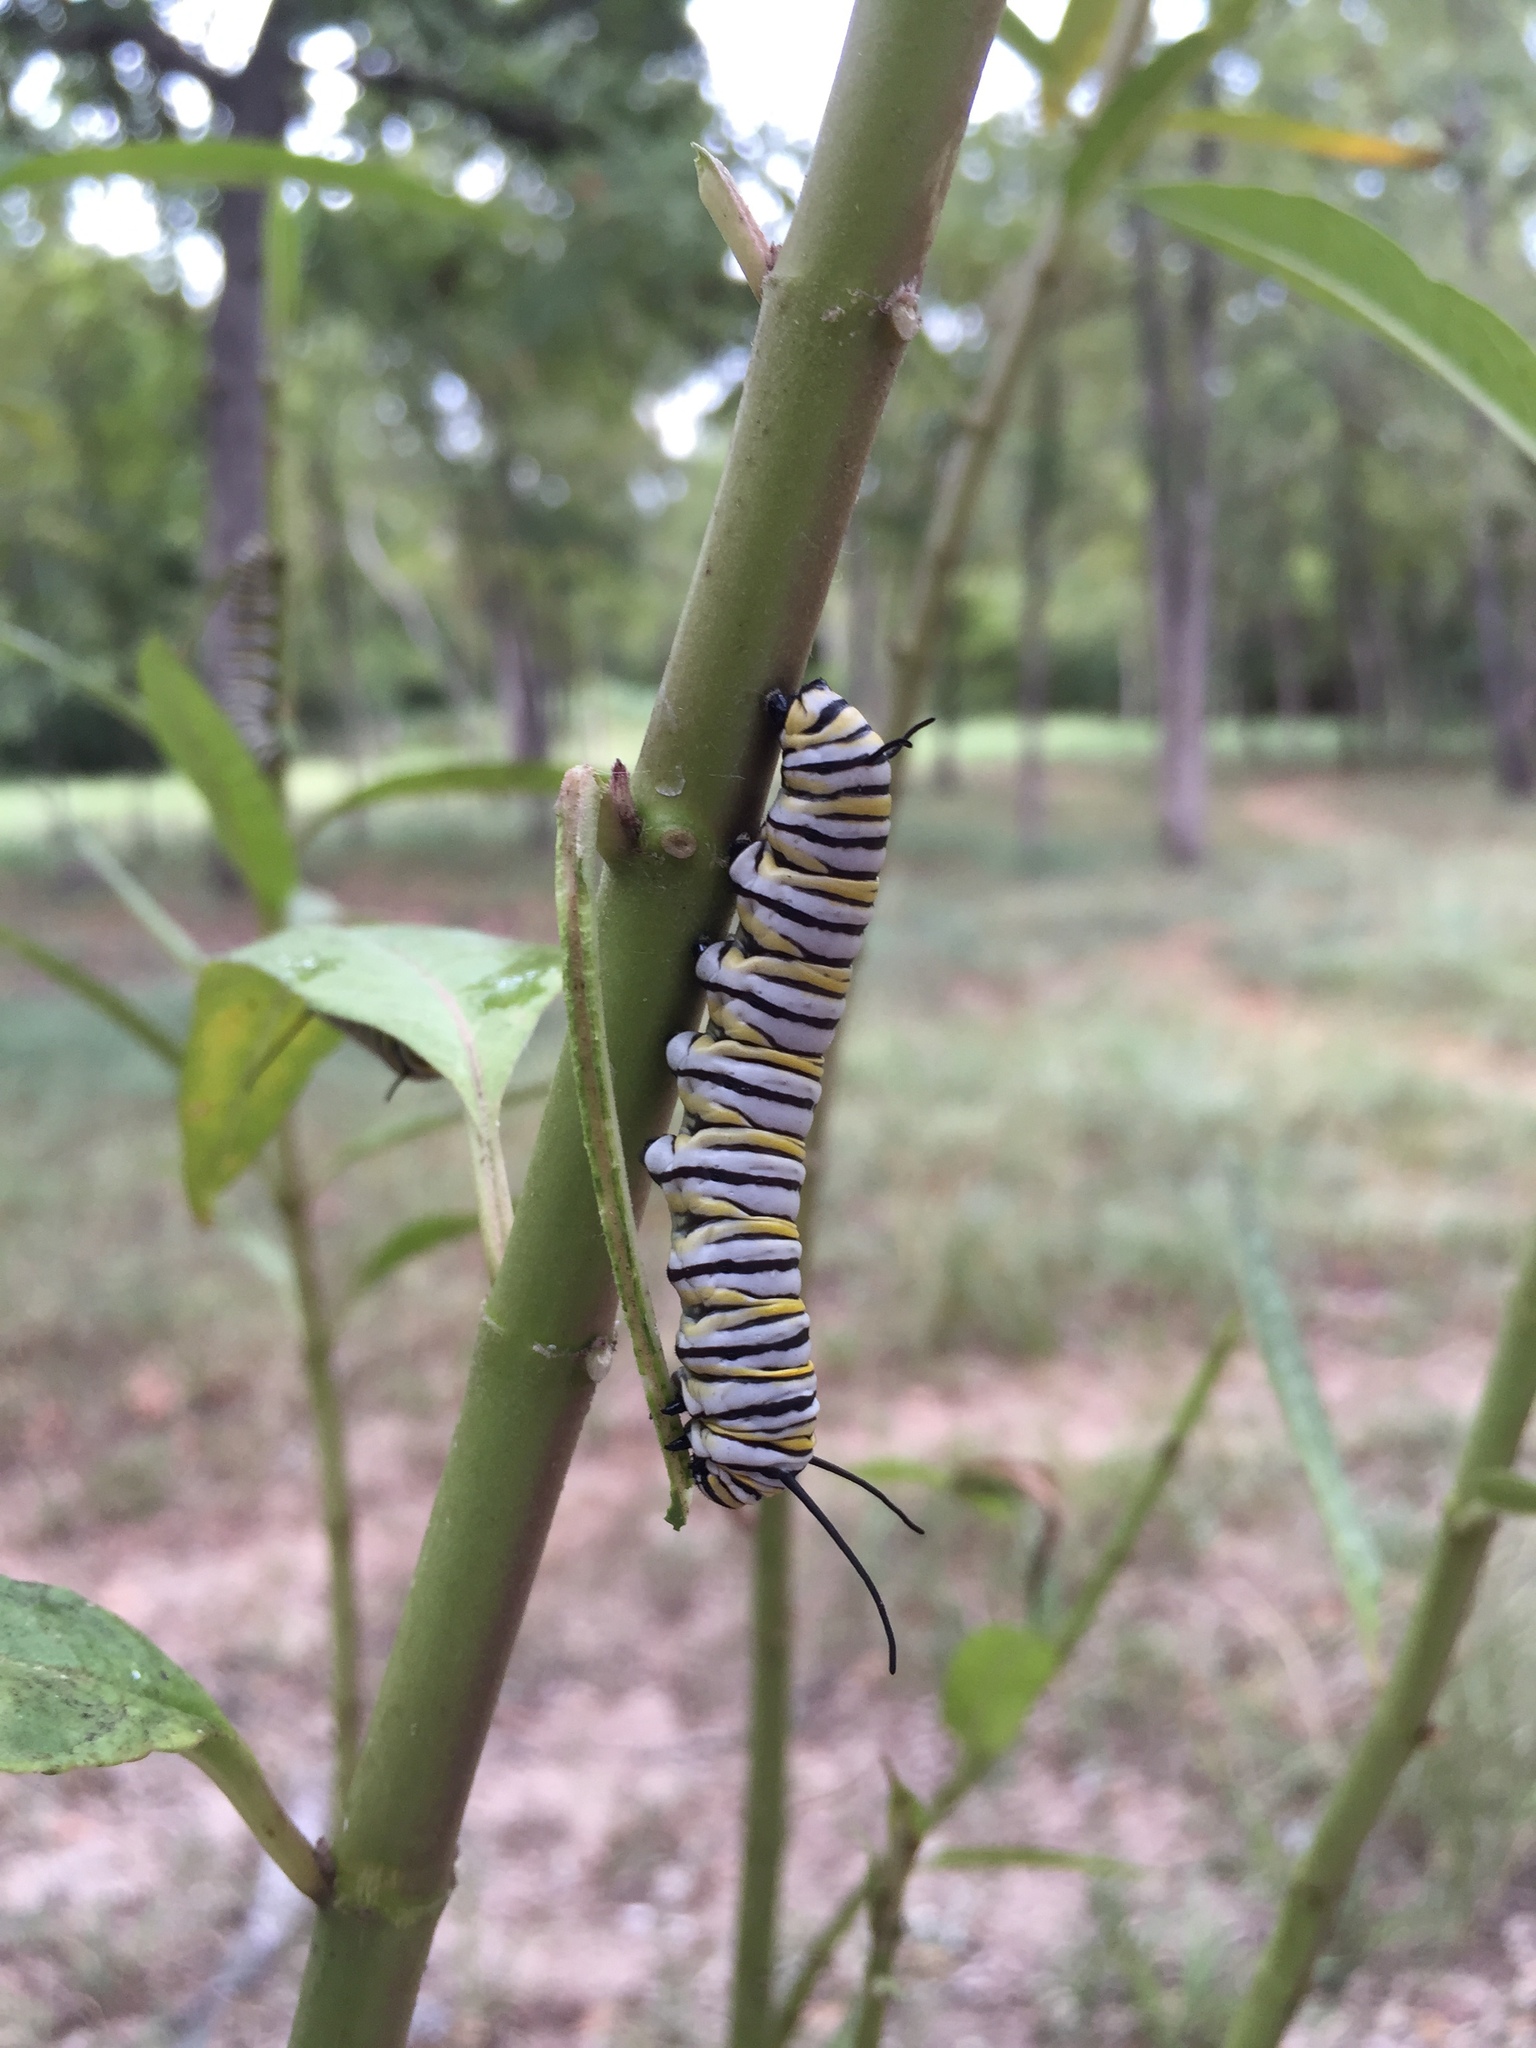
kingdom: Animalia
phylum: Arthropoda
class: Insecta
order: Lepidoptera
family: Nymphalidae
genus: Danaus
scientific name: Danaus plexippus
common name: Monarch
